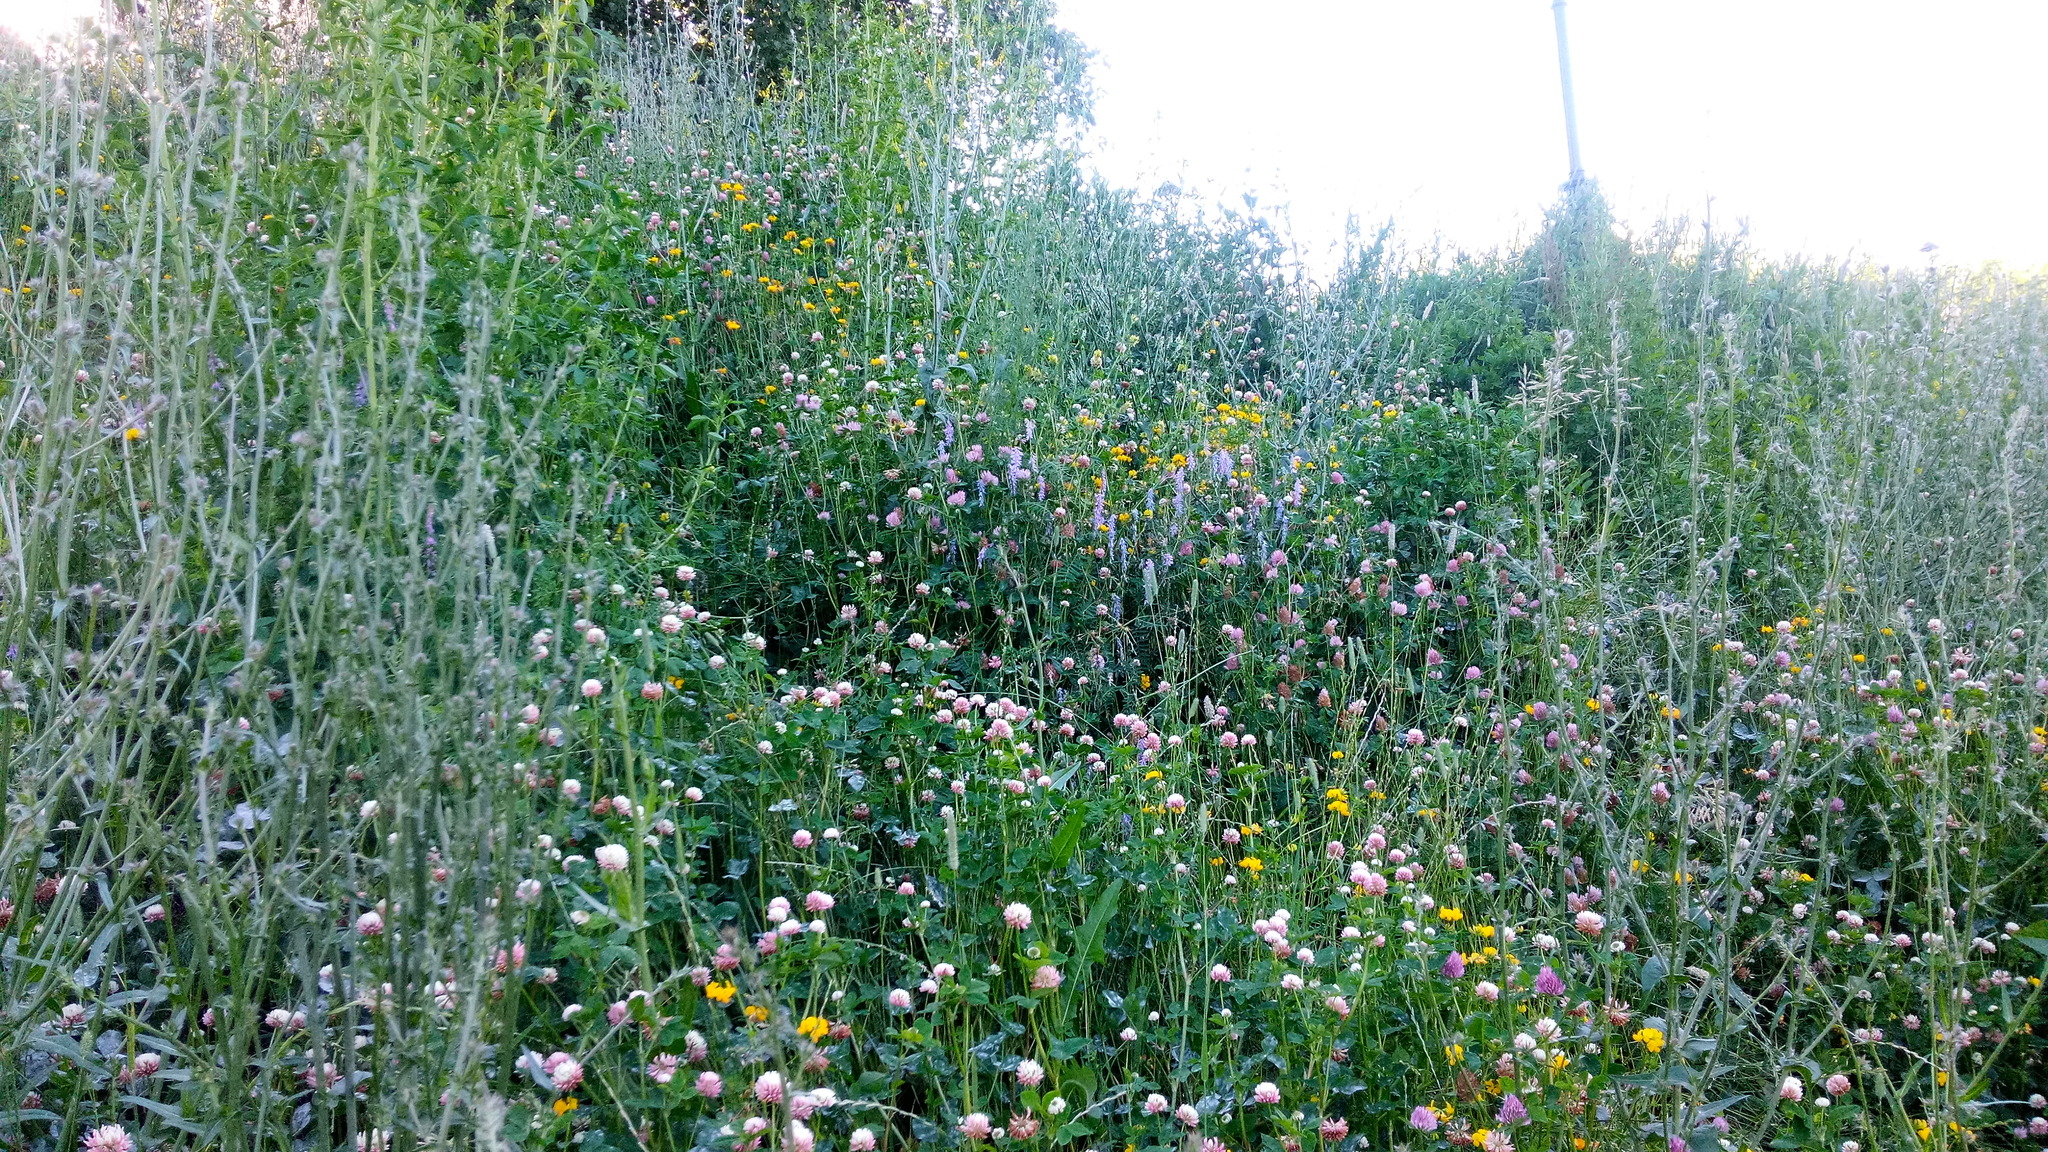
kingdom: Plantae
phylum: Tracheophyta
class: Magnoliopsida
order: Fabales
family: Fabaceae
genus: Trifolium
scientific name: Trifolium hybridum
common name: Alsike clover
